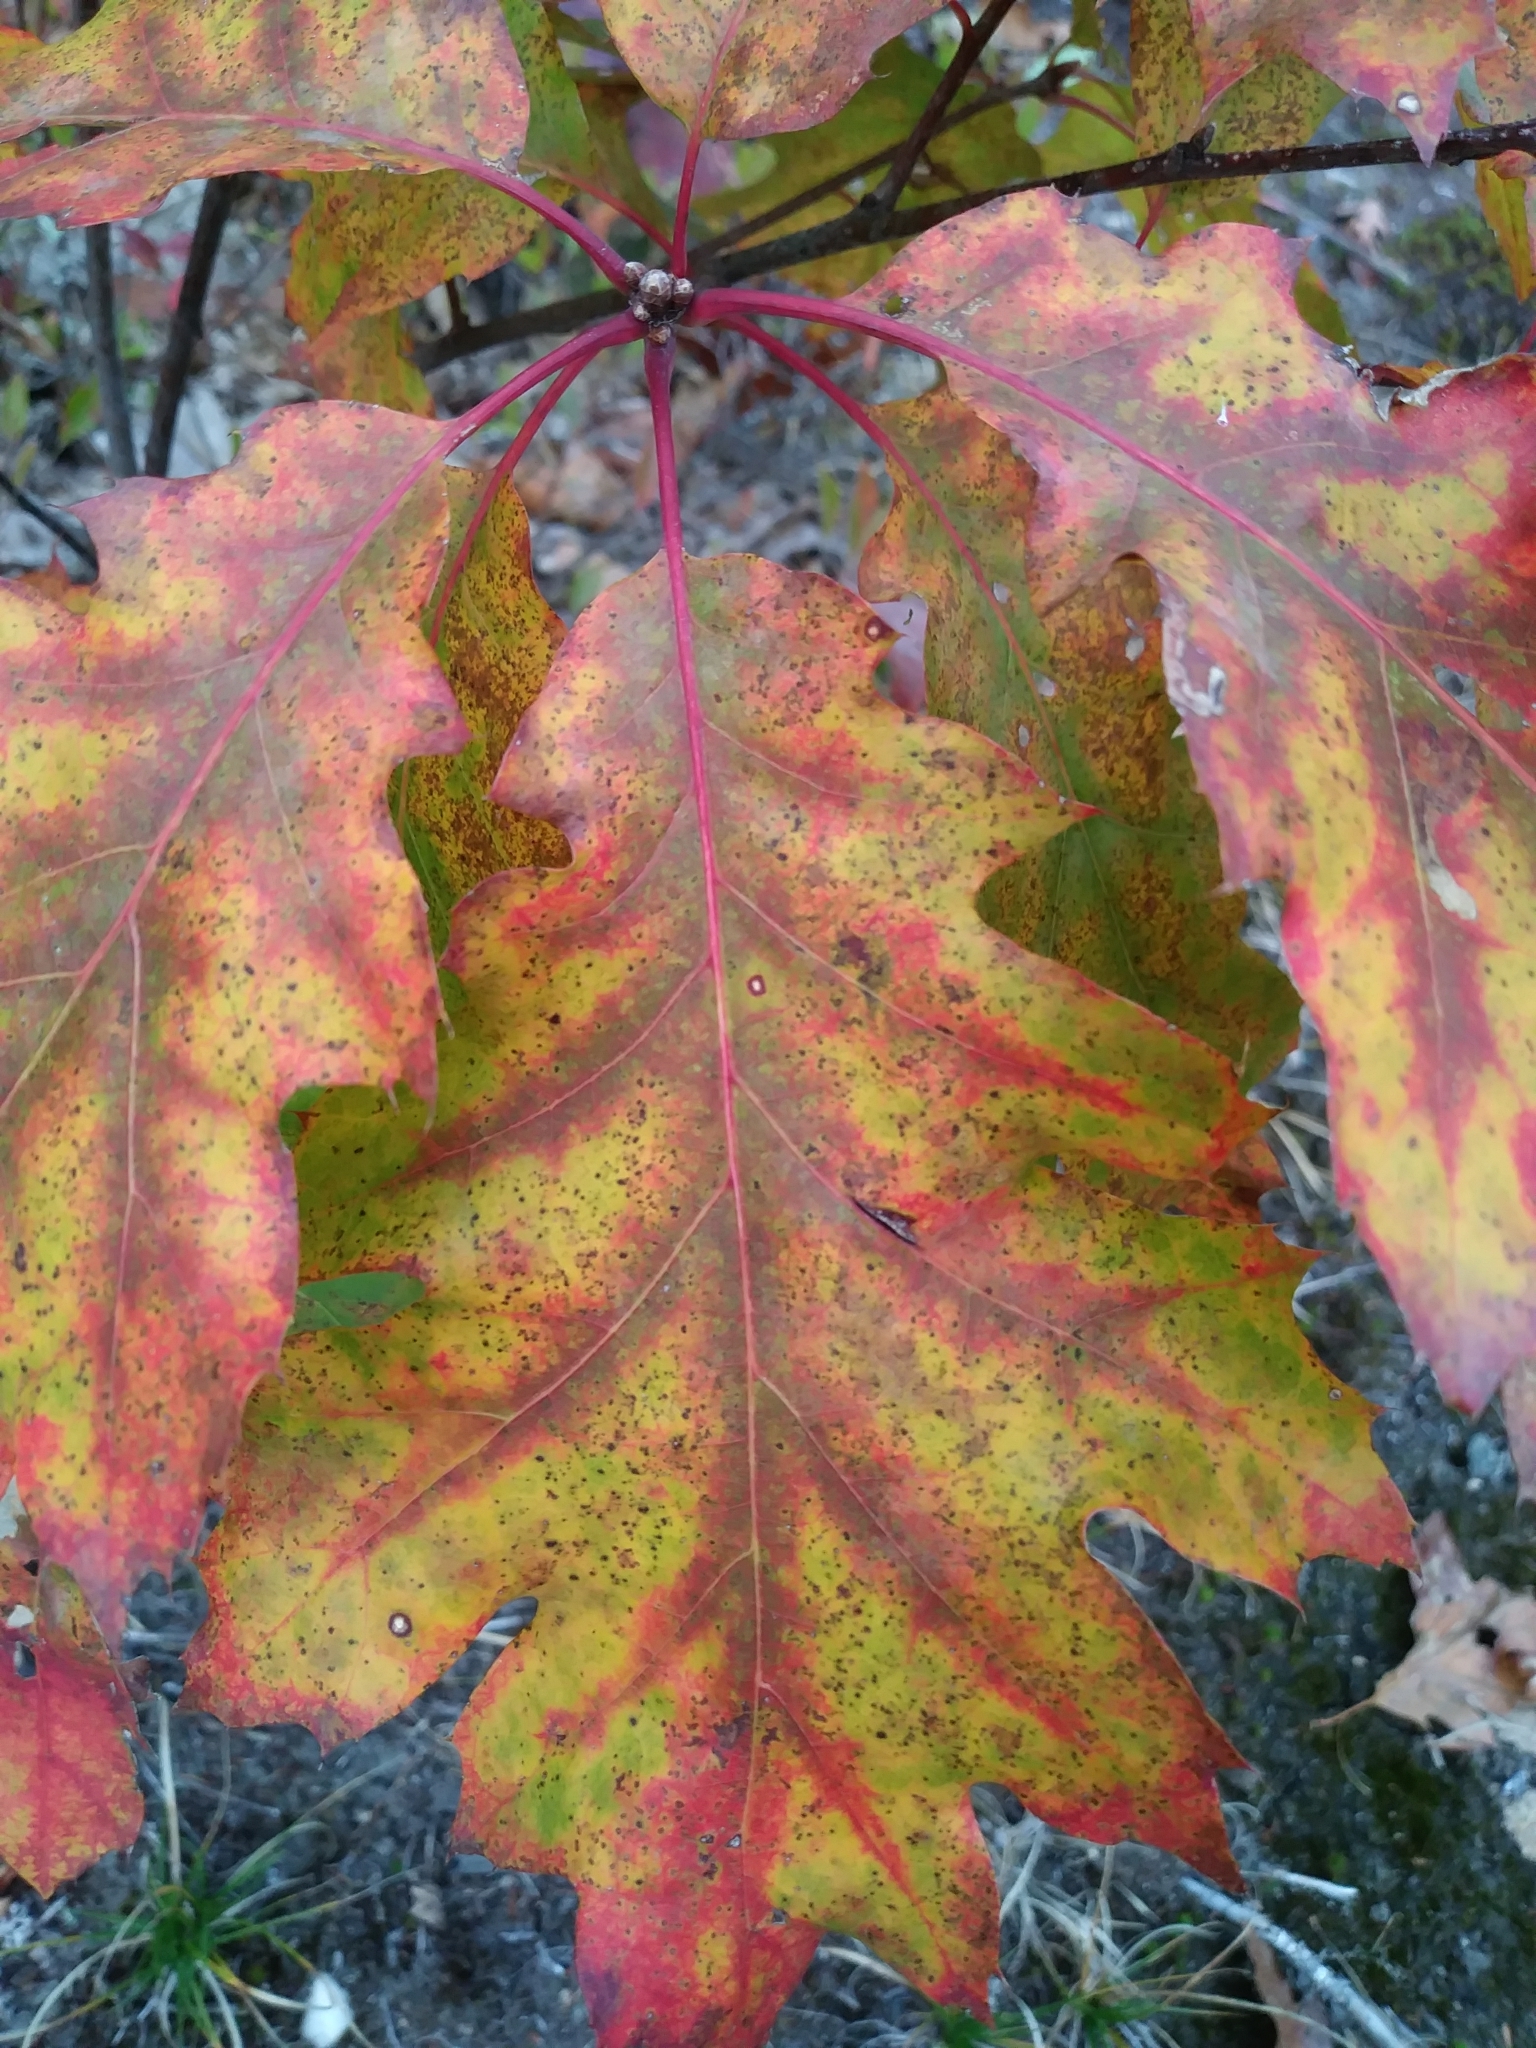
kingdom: Plantae
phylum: Tracheophyta
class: Magnoliopsida
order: Fagales
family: Fagaceae
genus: Quercus
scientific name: Quercus rubra
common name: Red oak
